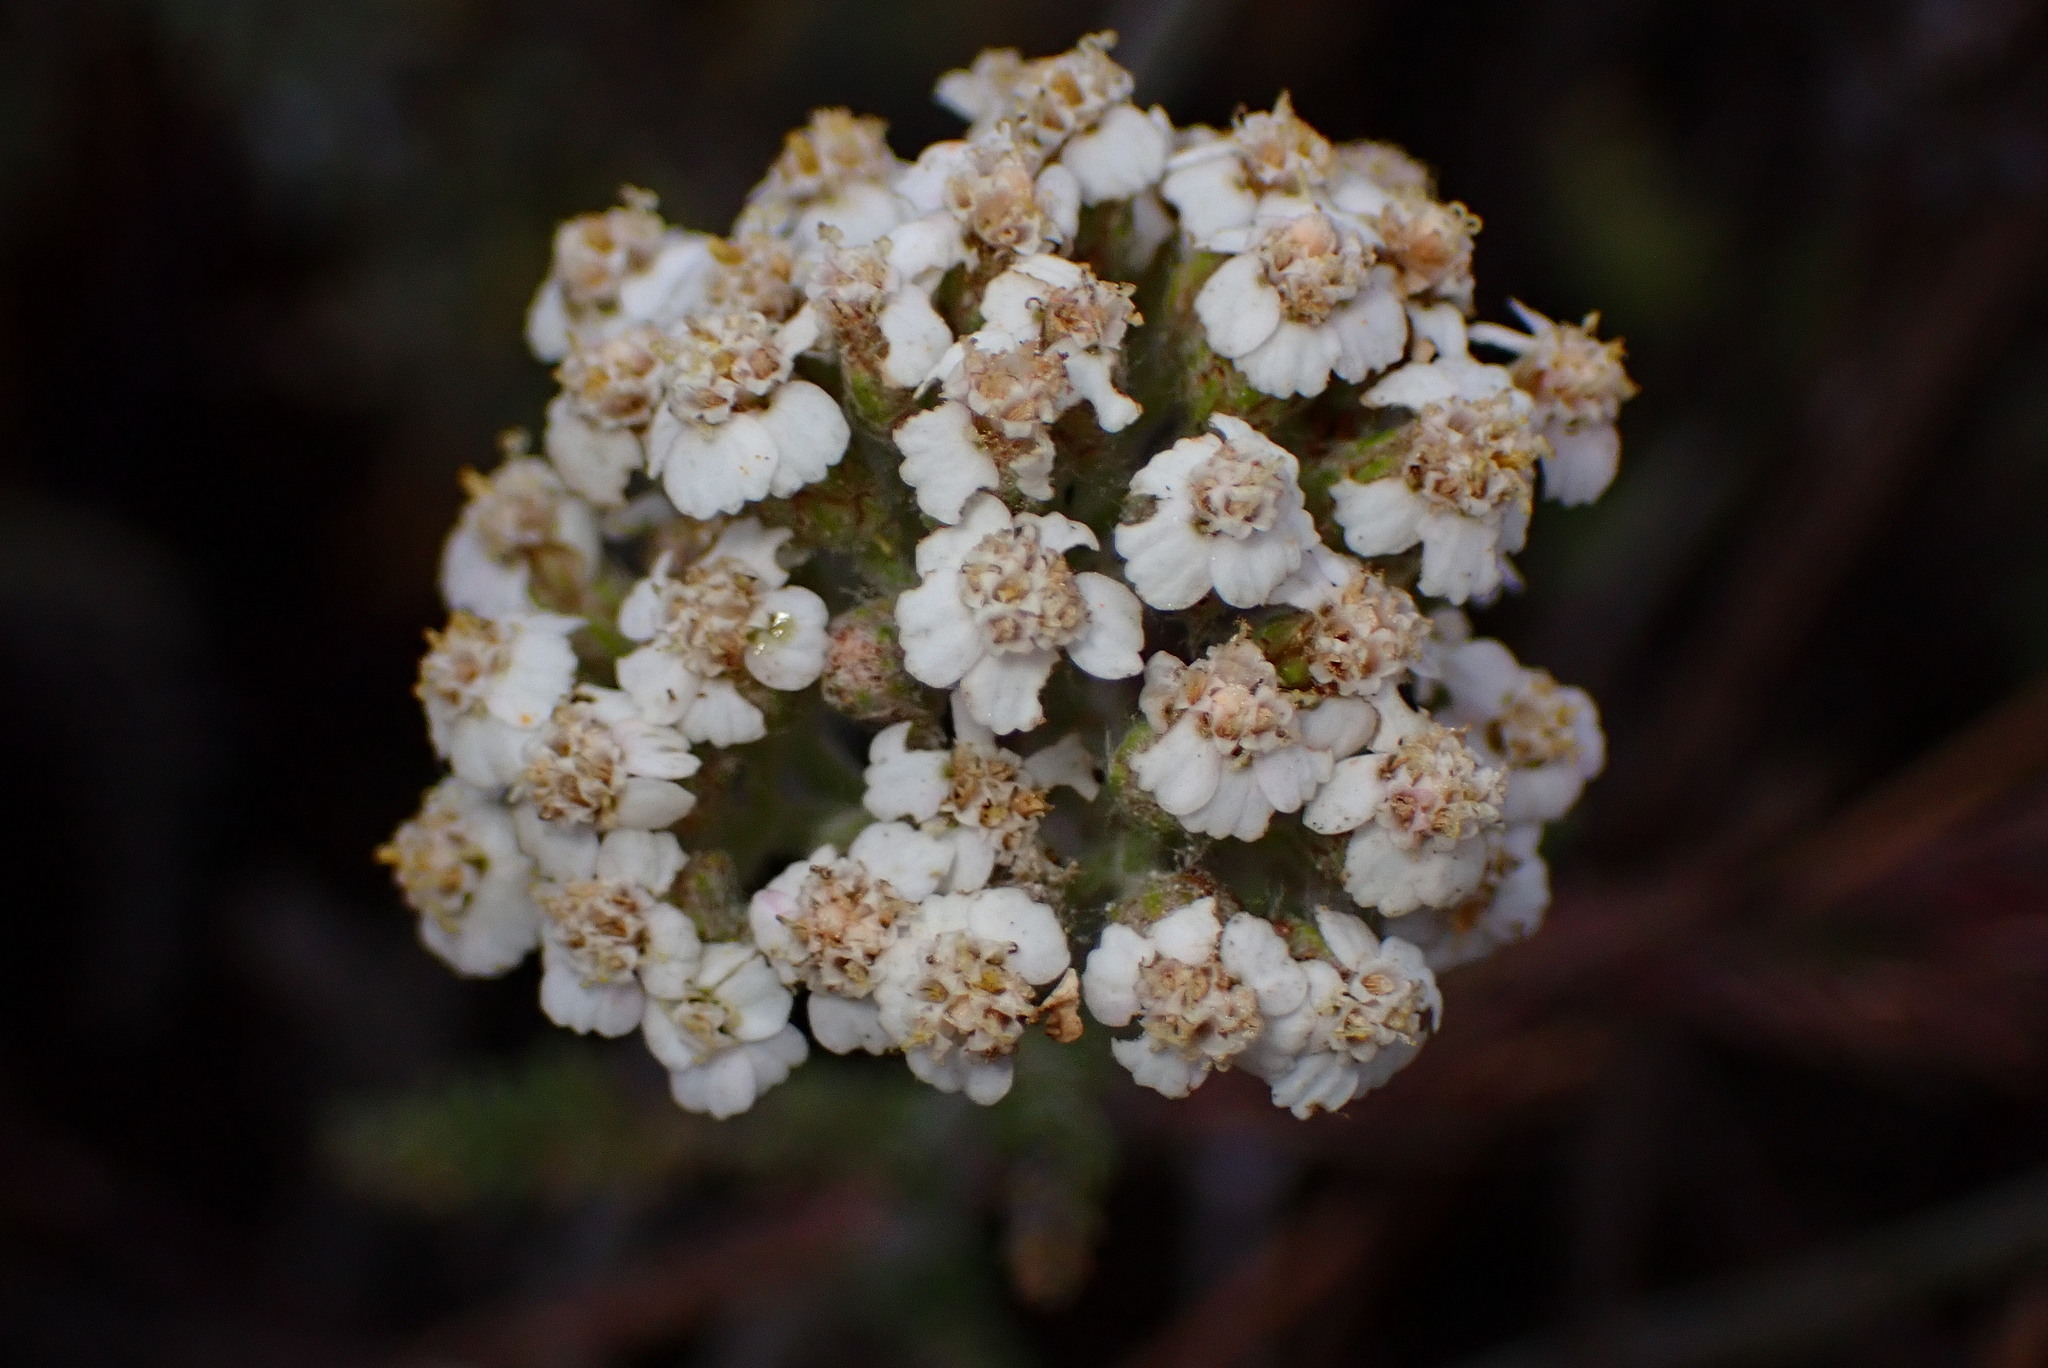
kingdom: Plantae
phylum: Tracheophyta
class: Magnoliopsida
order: Asterales
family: Asteraceae
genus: Achillea
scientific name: Achillea millefolium
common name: Yarrow
